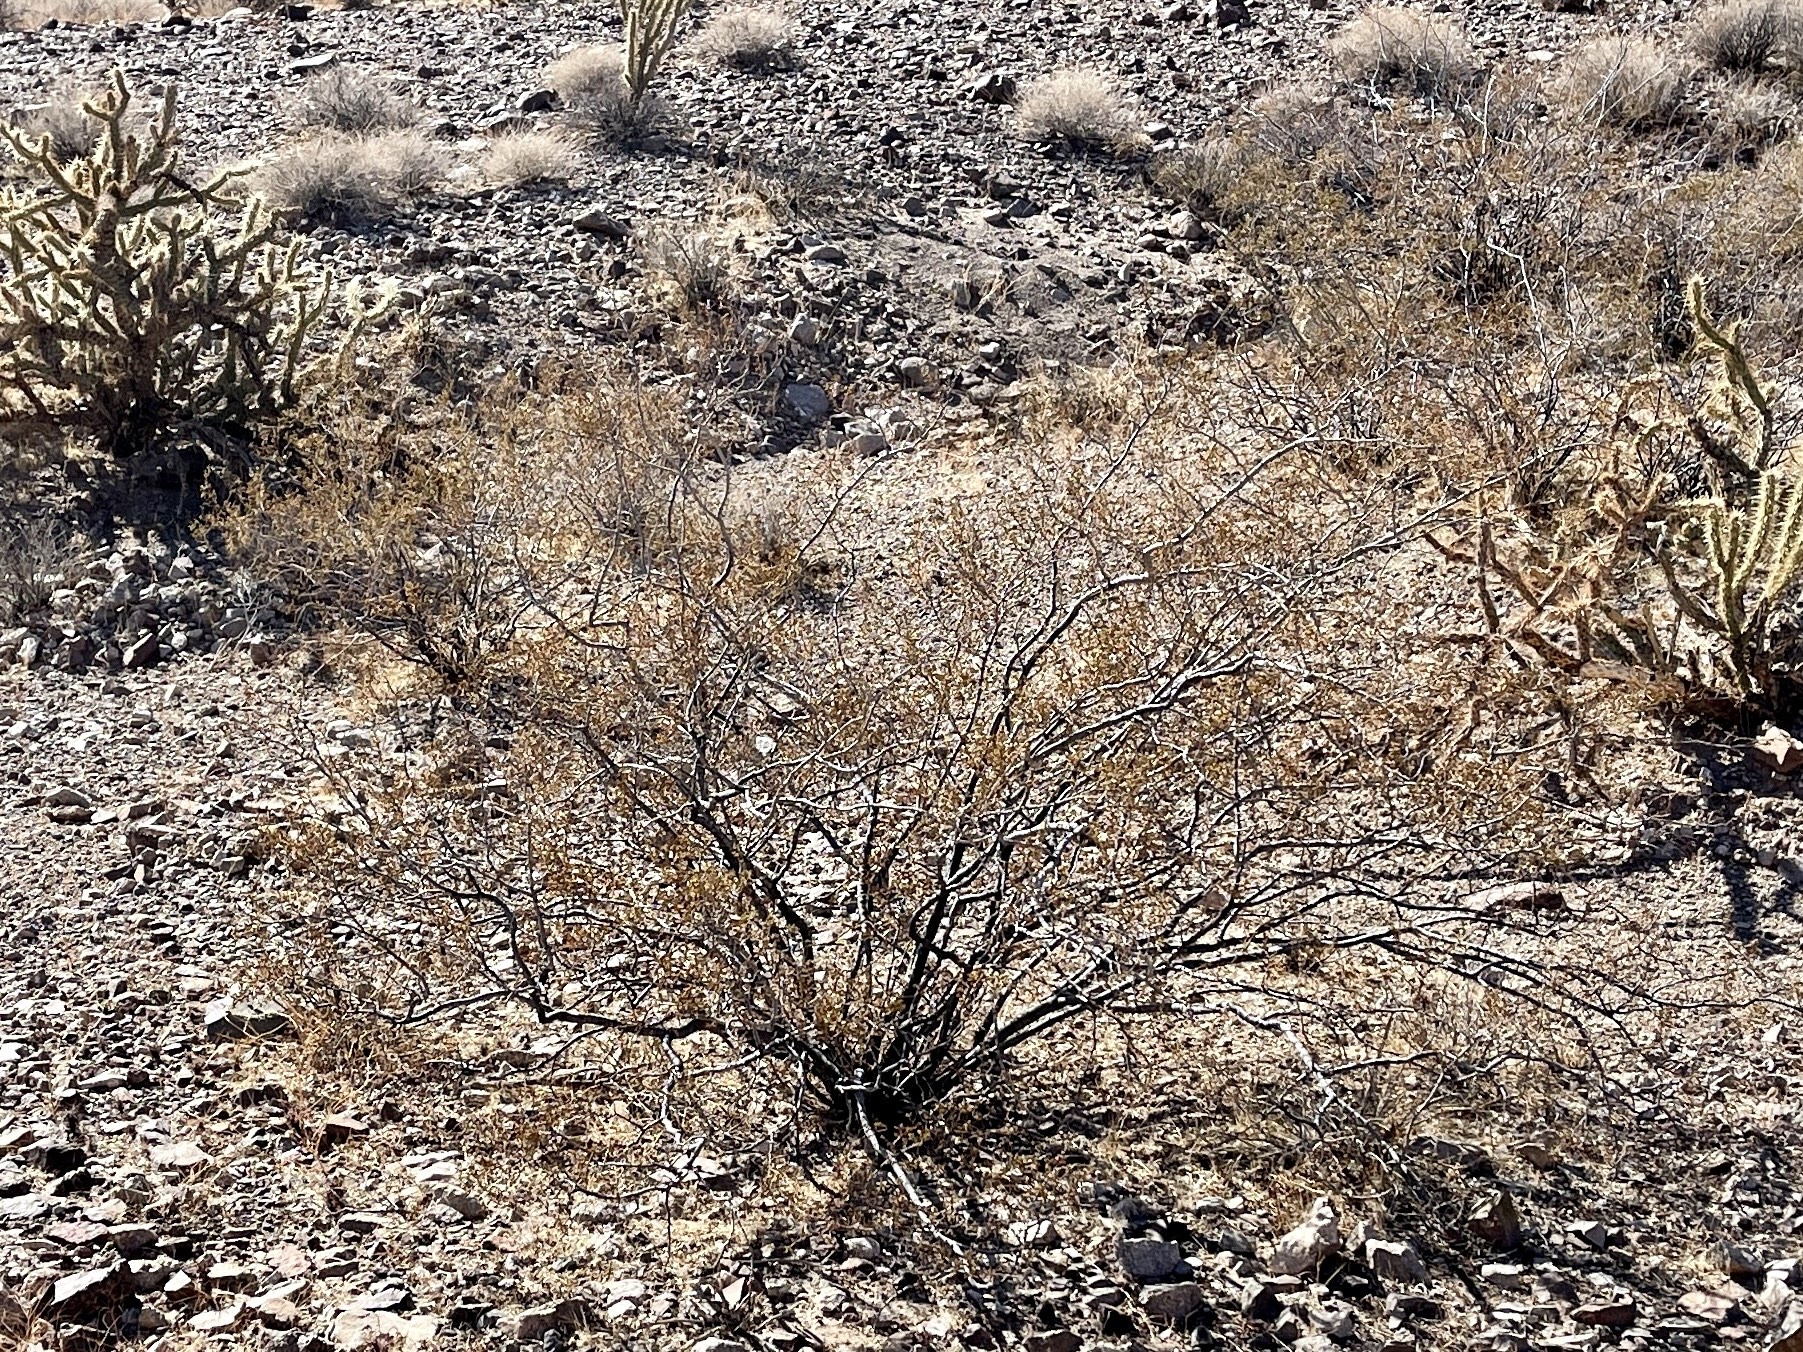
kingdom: Plantae
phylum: Tracheophyta
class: Magnoliopsida
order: Zygophyllales
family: Zygophyllaceae
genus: Larrea
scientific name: Larrea tridentata
